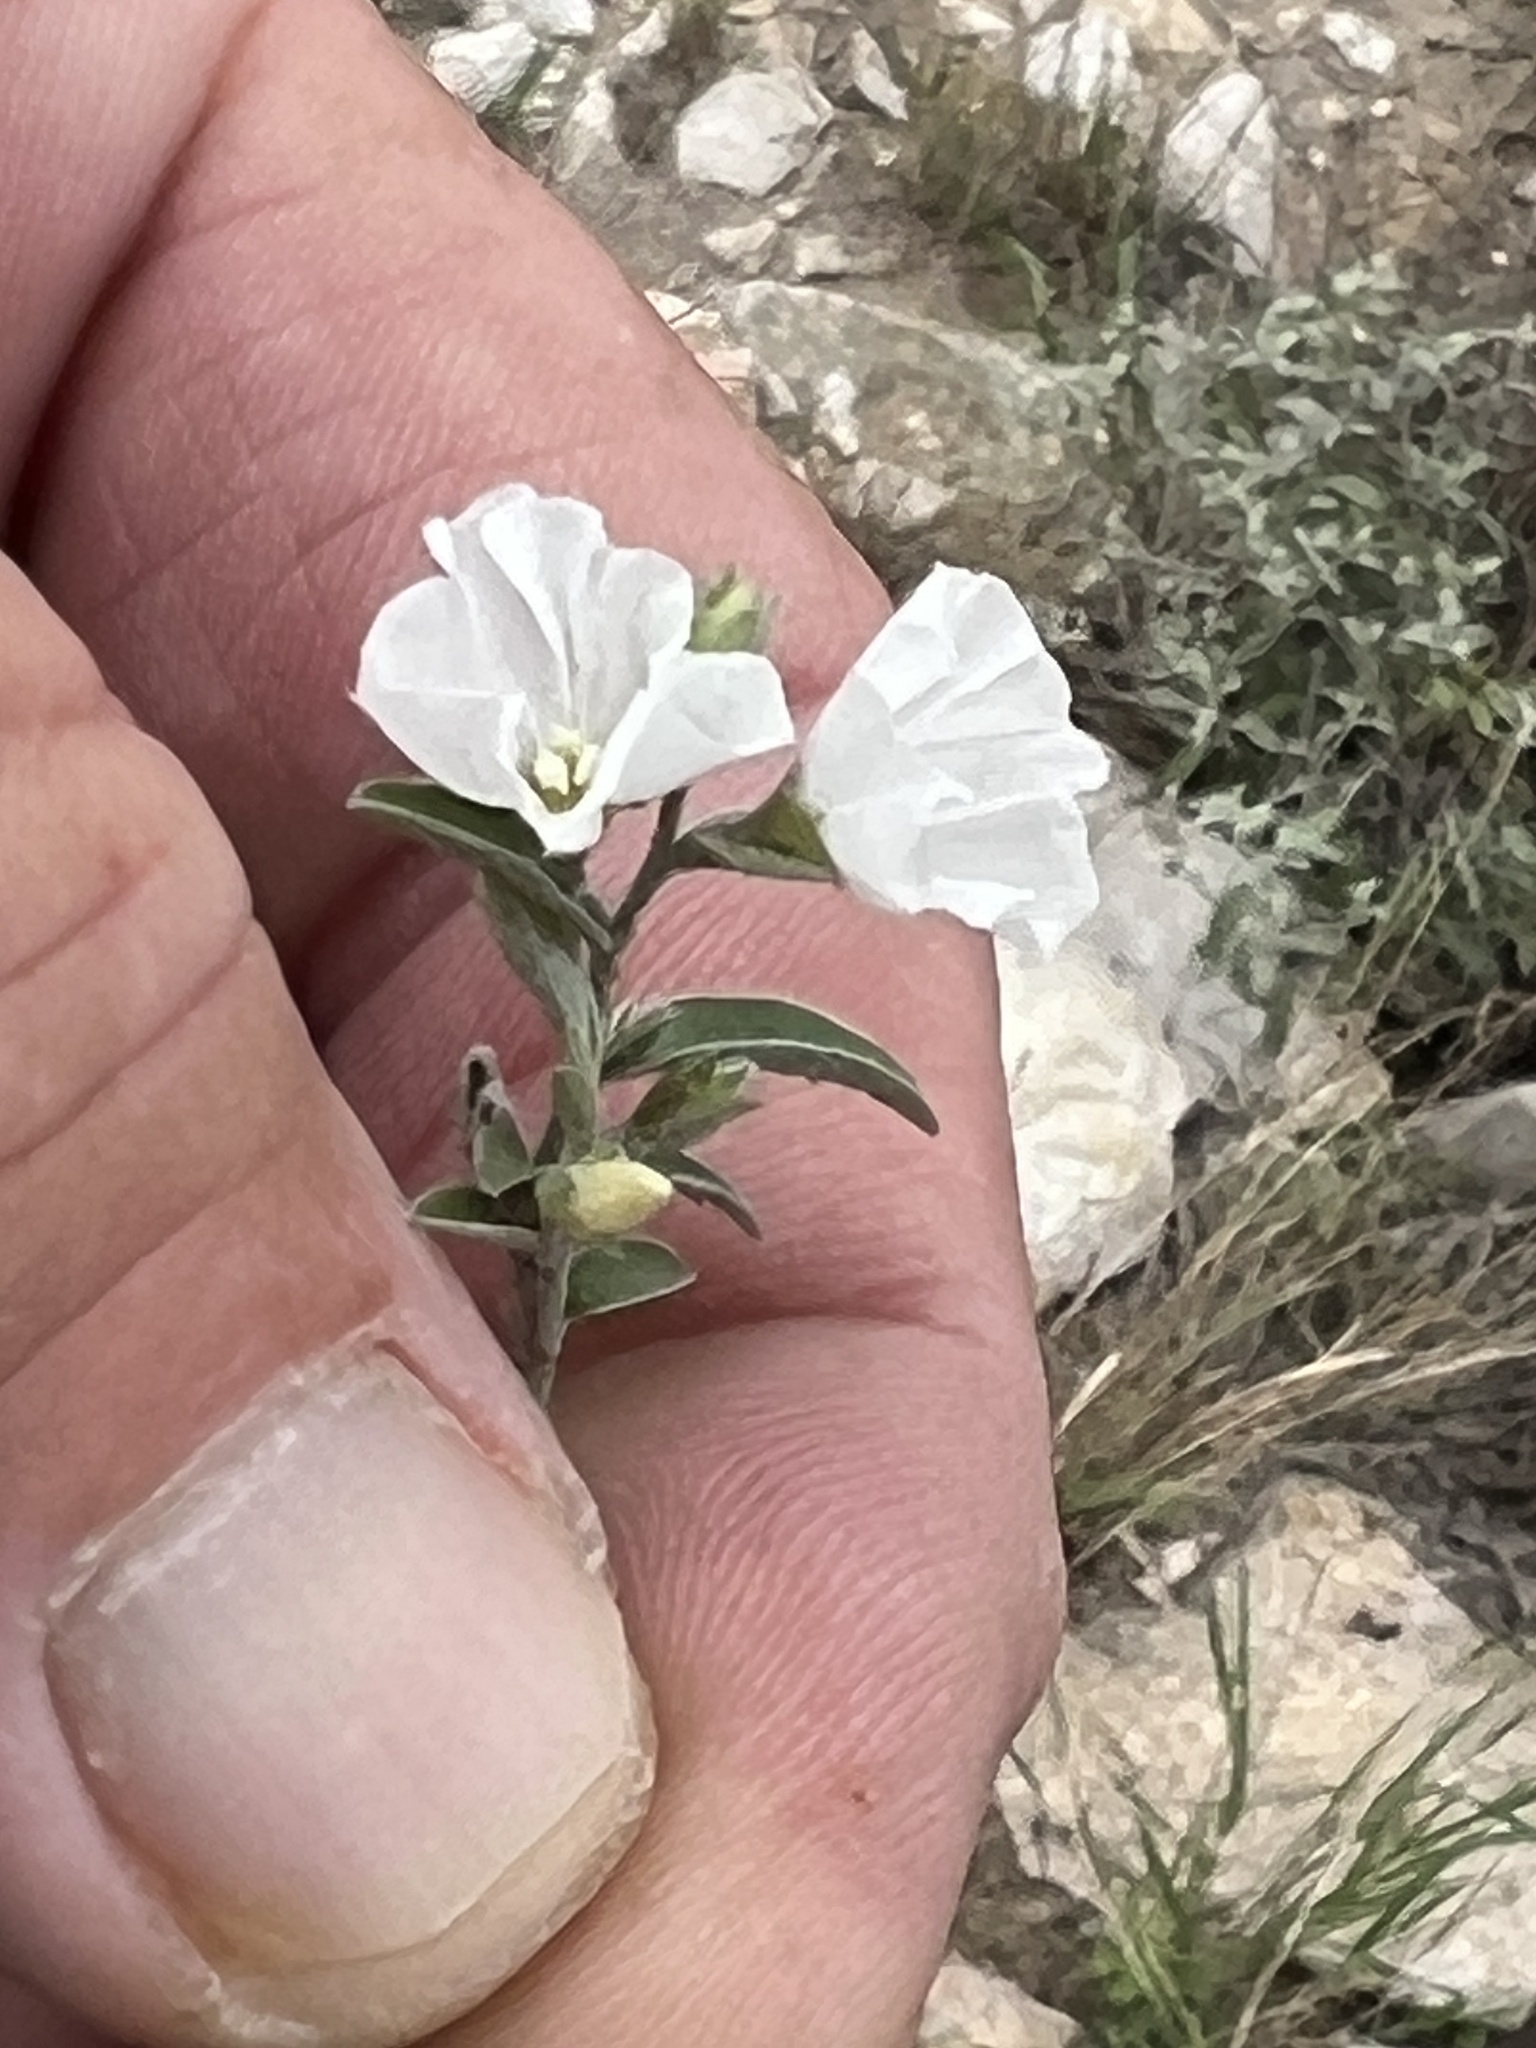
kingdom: Plantae
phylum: Tracheophyta
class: Magnoliopsida
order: Solanales
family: Convolvulaceae
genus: Evolvulus
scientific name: Evolvulus sericeus
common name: Blue dots
